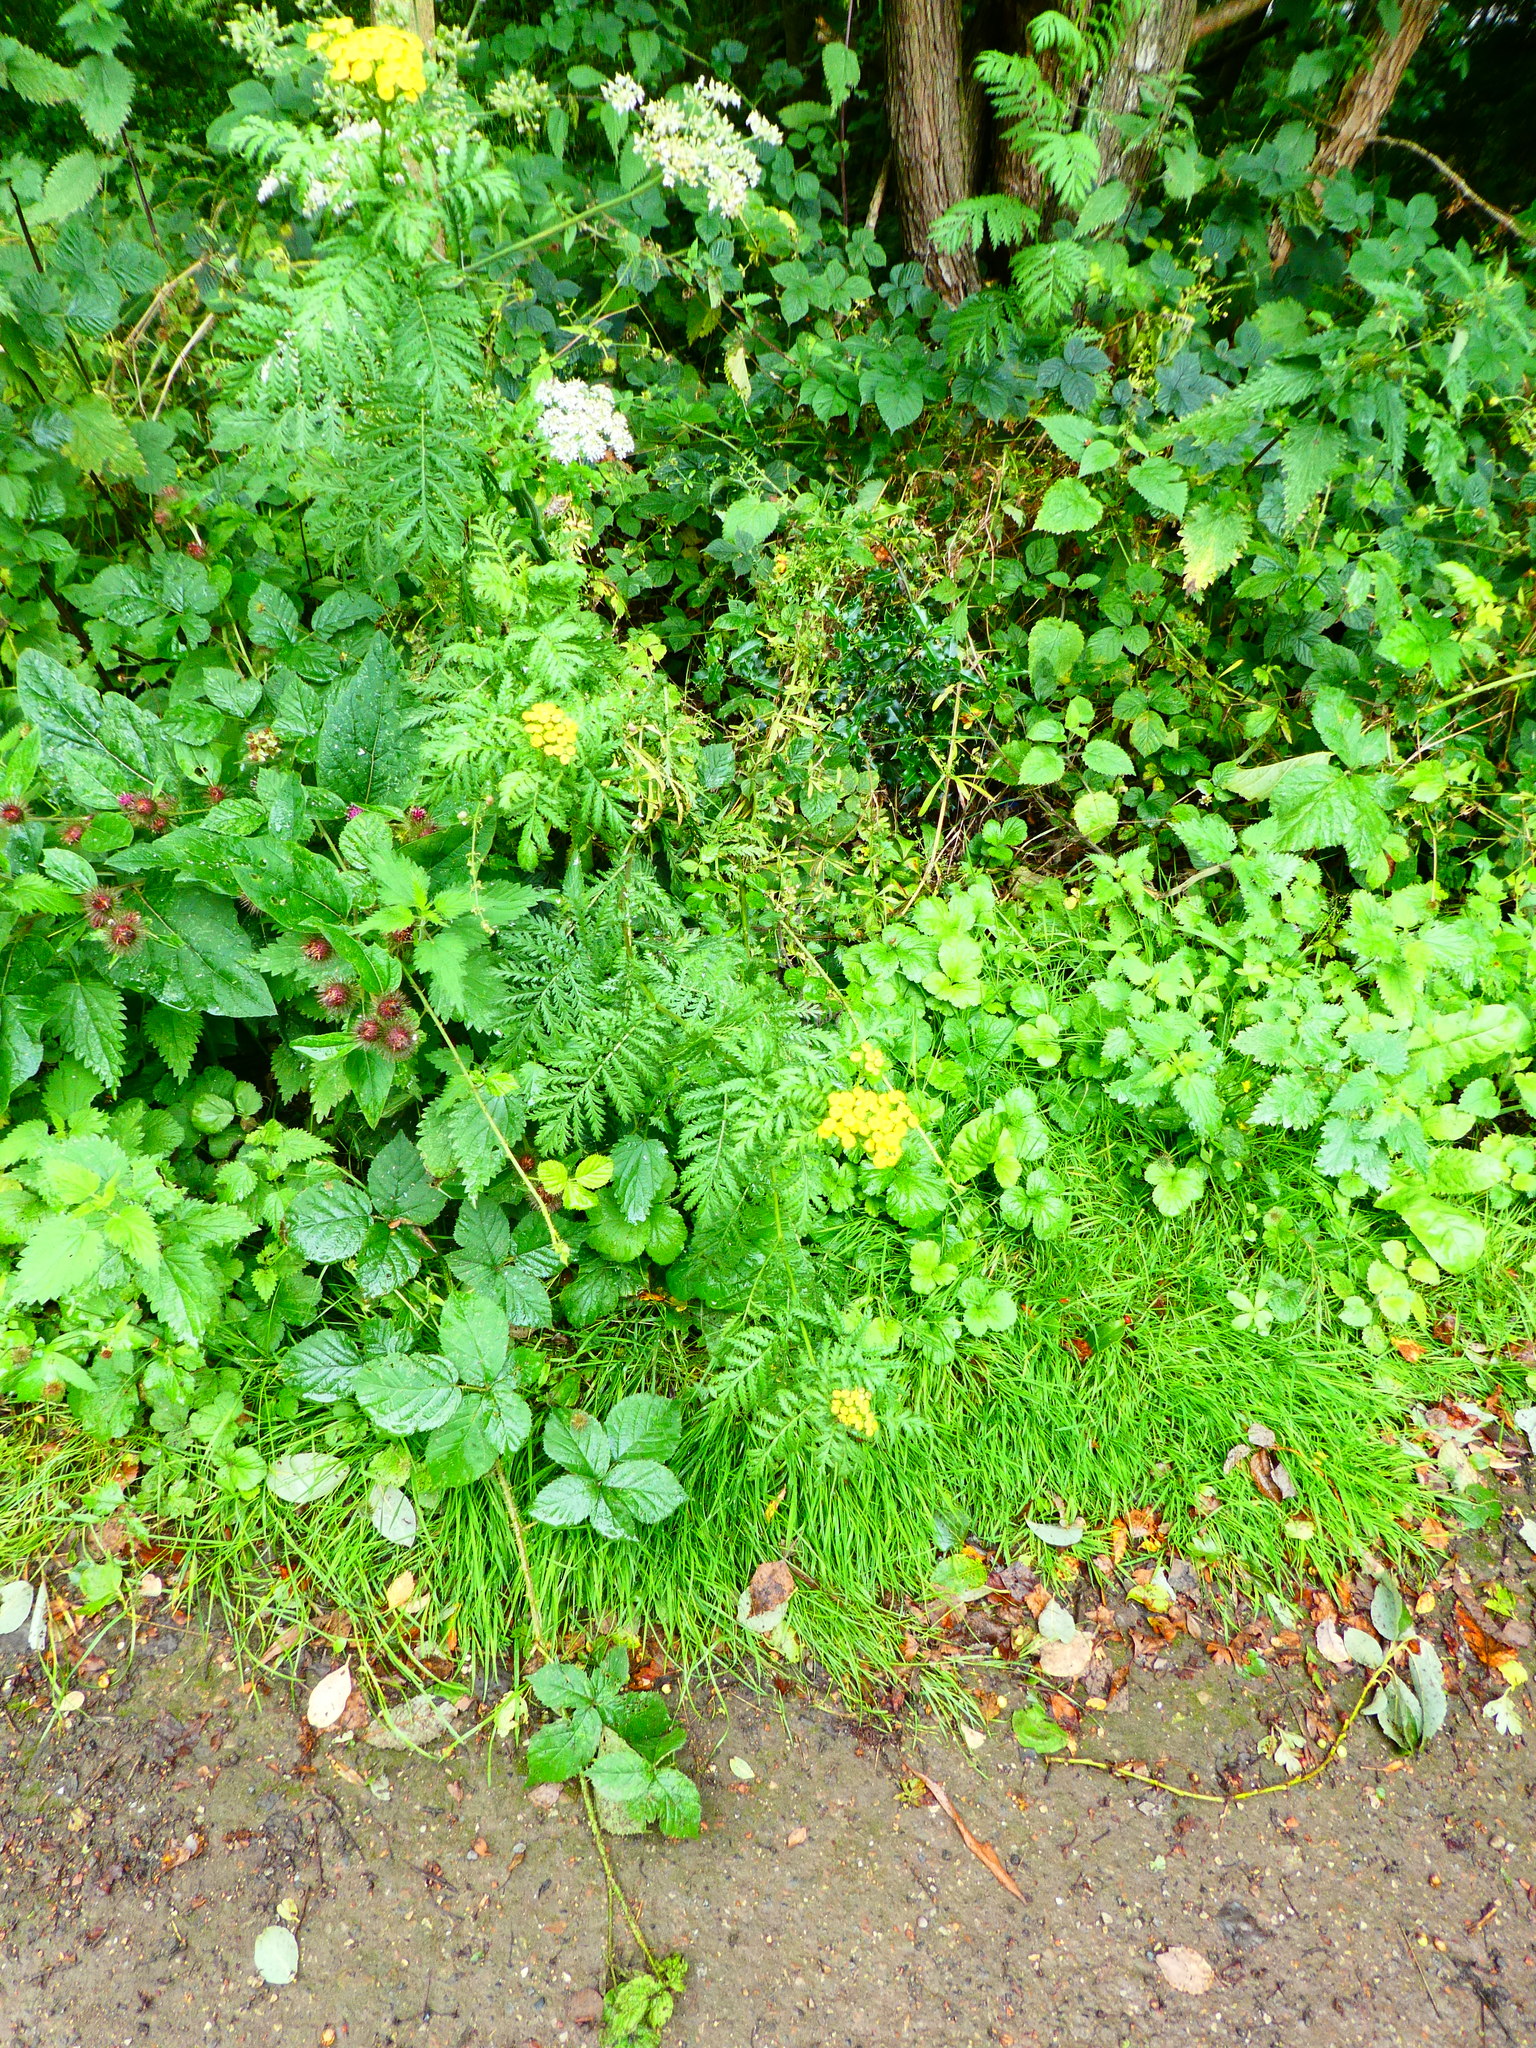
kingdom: Plantae
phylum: Tracheophyta
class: Magnoliopsida
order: Asterales
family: Asteraceae
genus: Tanacetum
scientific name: Tanacetum vulgare
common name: Common tansy
